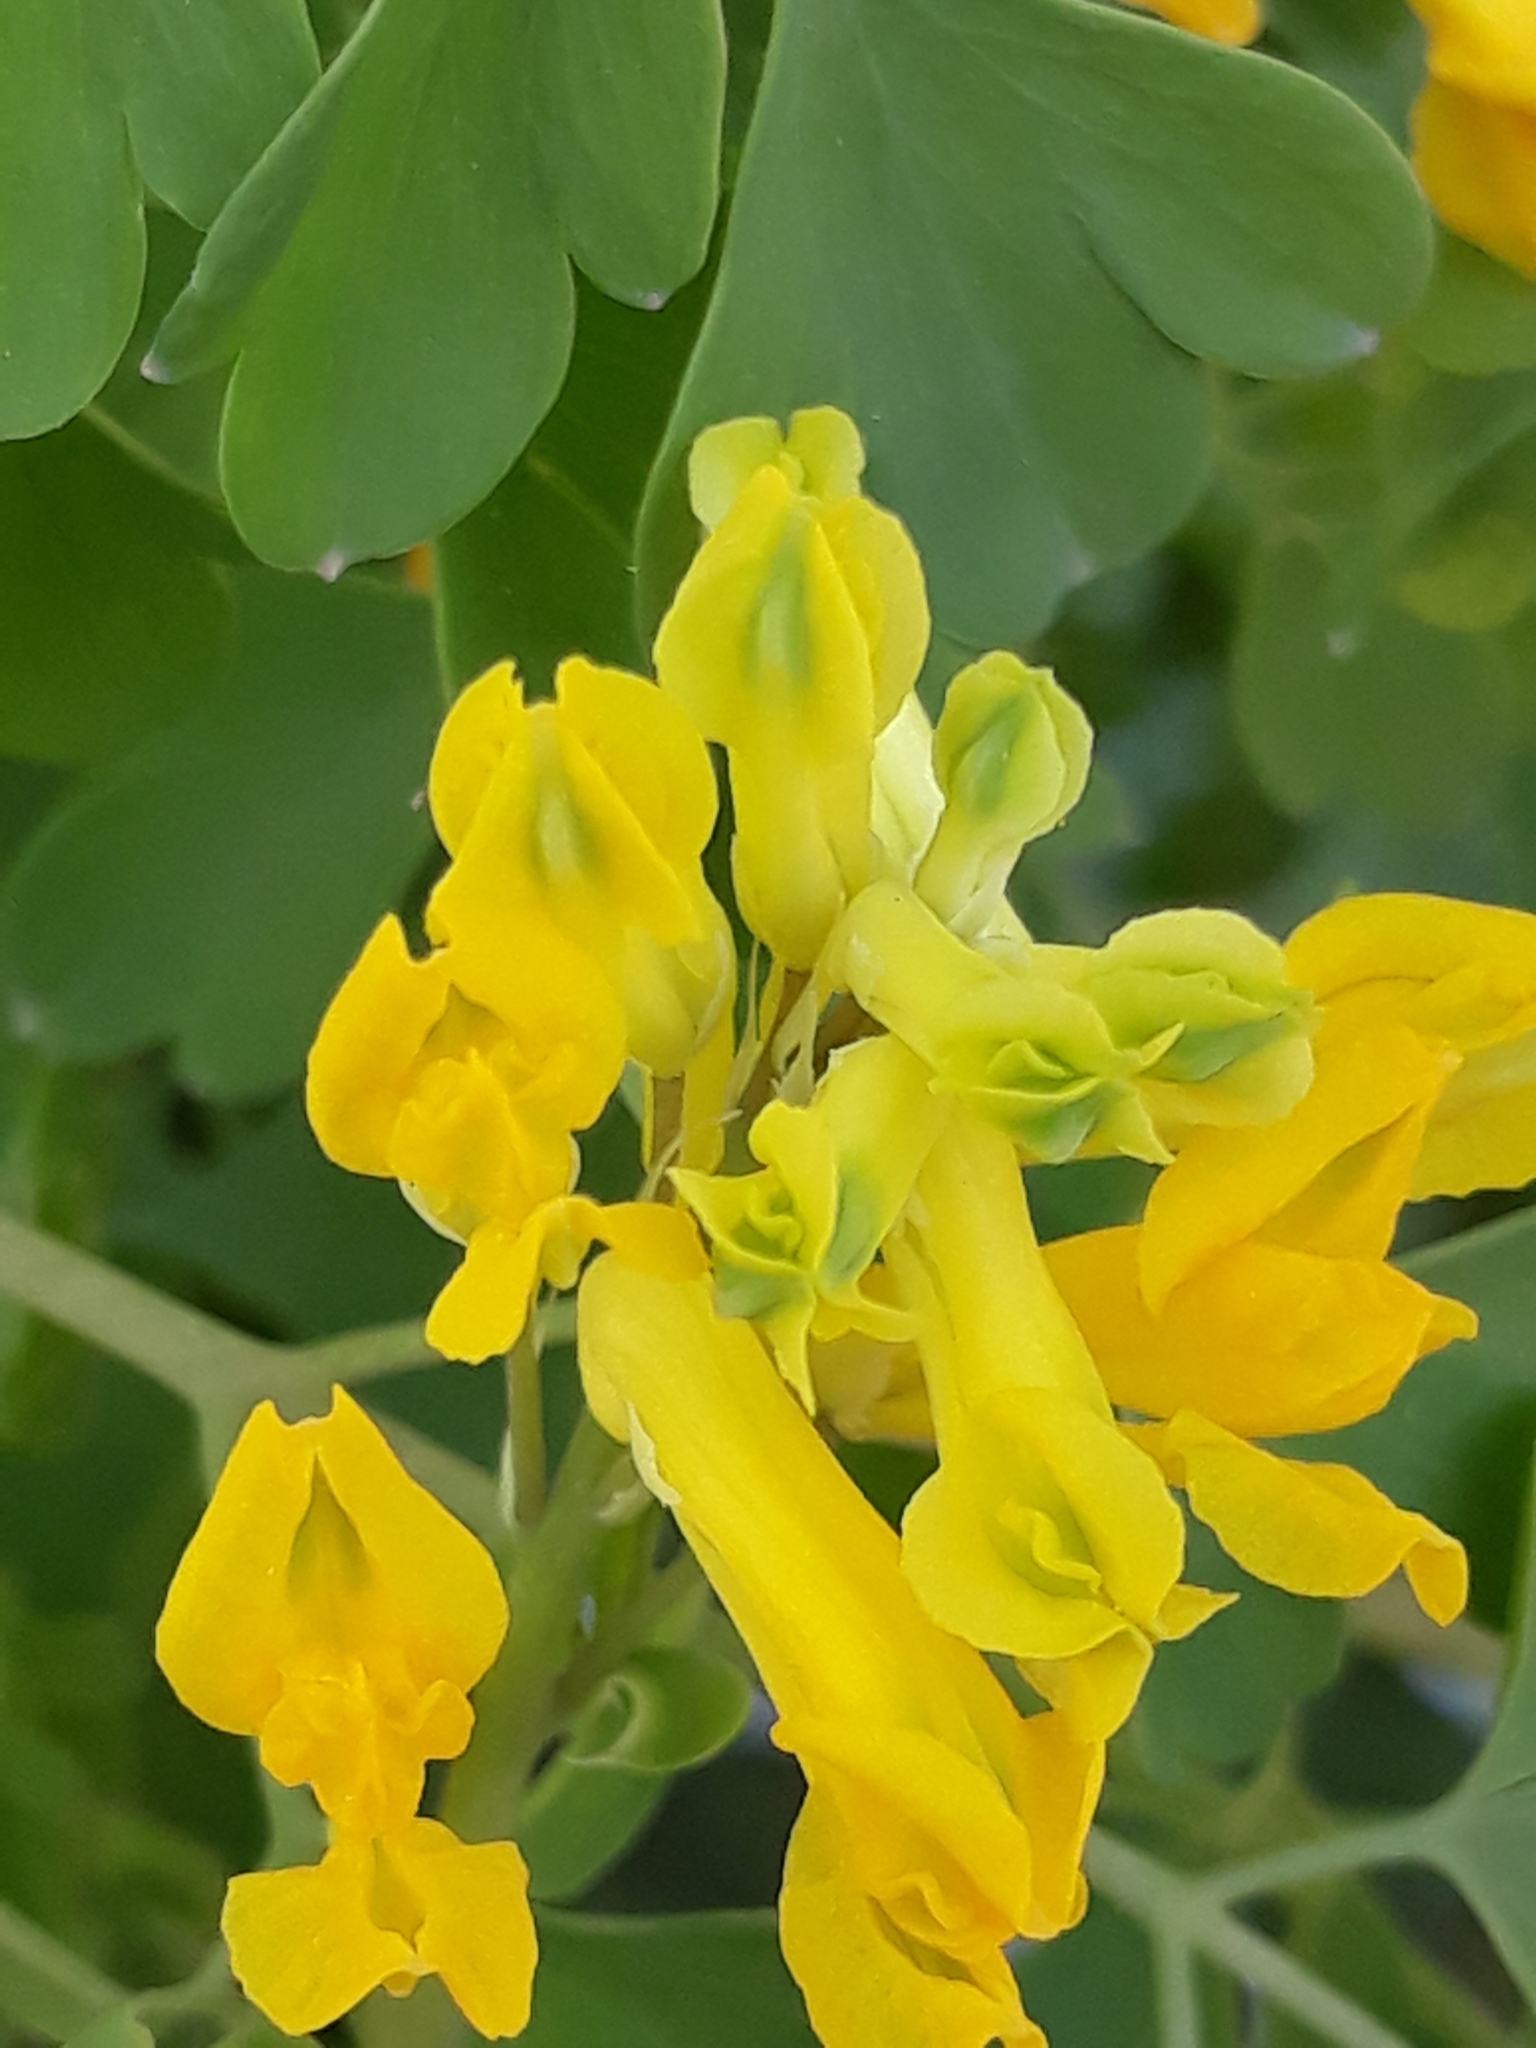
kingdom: Plantae
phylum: Tracheophyta
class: Magnoliopsida
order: Ranunculales
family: Papaveraceae
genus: Pseudofumaria
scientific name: Pseudofumaria lutea
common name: Yellow corydalis
